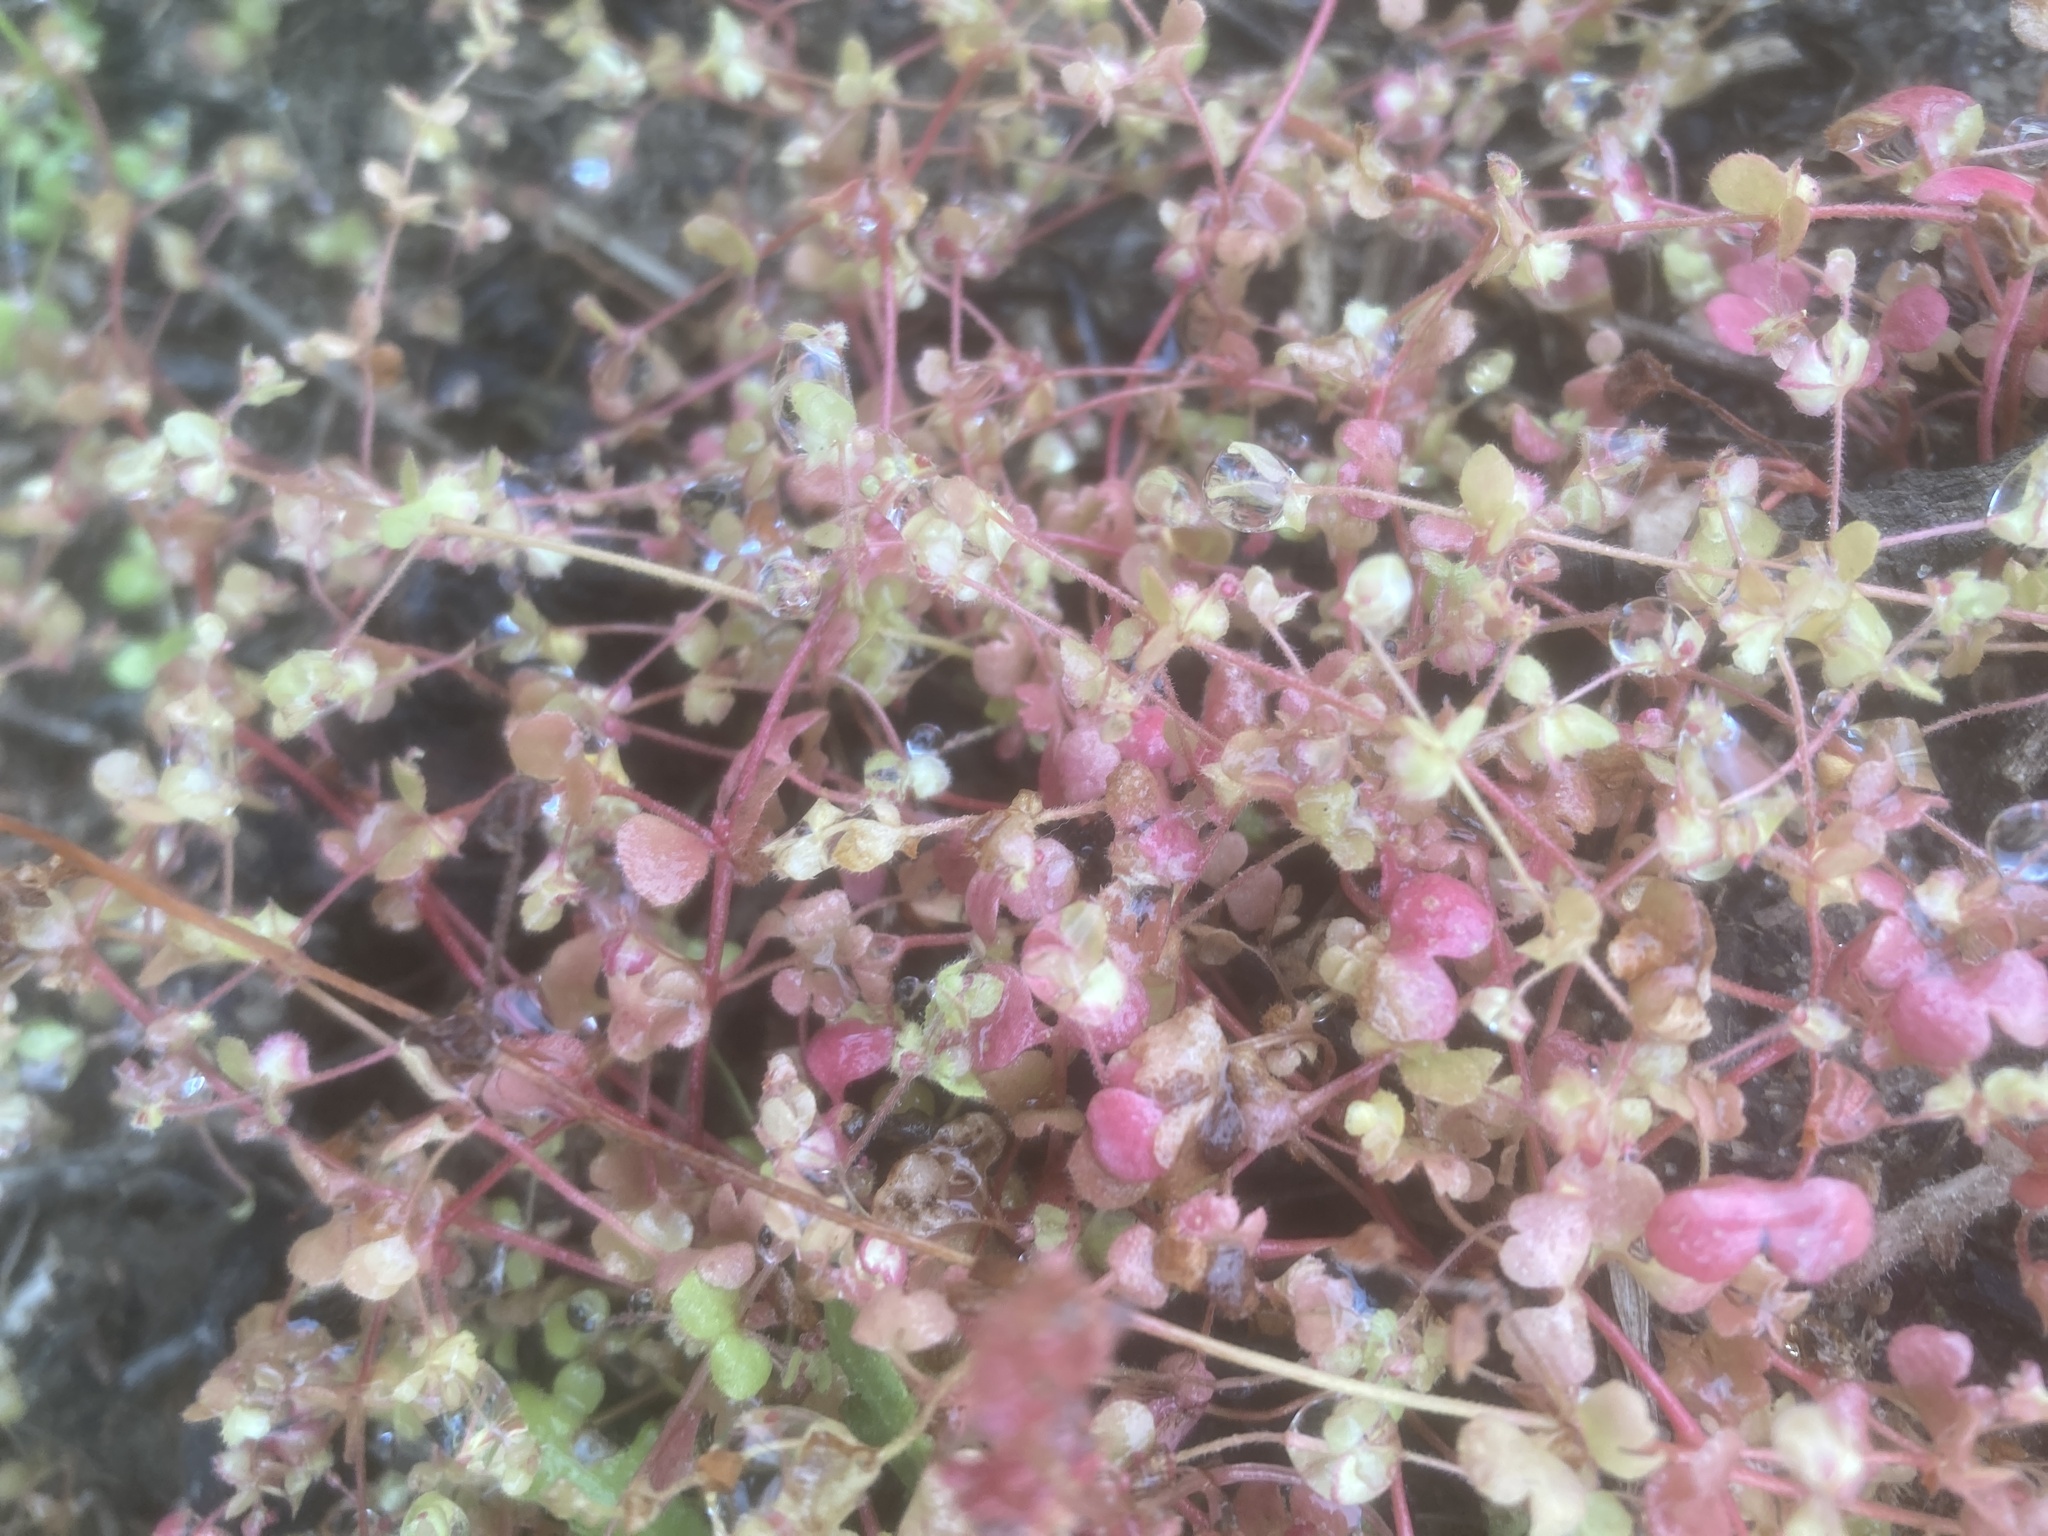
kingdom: Plantae
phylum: Tracheophyta
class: Magnoliopsida
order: Caryophyllales
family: Polygonaceae
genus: Pterostegia
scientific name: Pterostegia drymarioides
